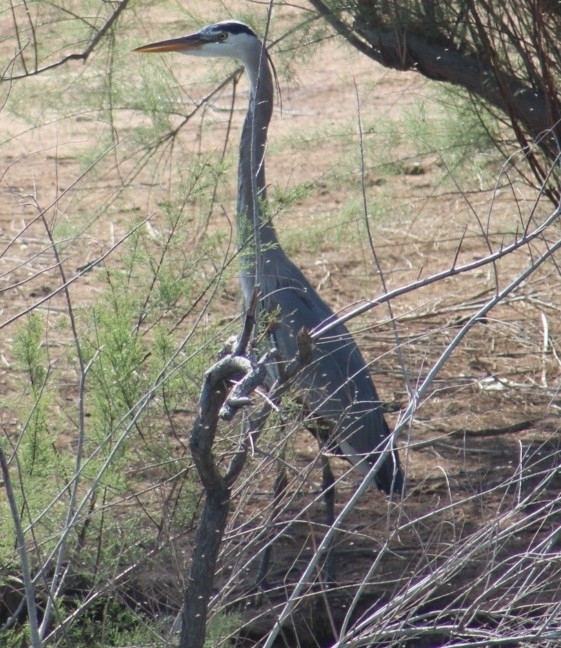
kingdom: Animalia
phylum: Chordata
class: Aves
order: Pelecaniformes
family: Ardeidae
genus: Ardea
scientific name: Ardea herodias
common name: Great blue heron
